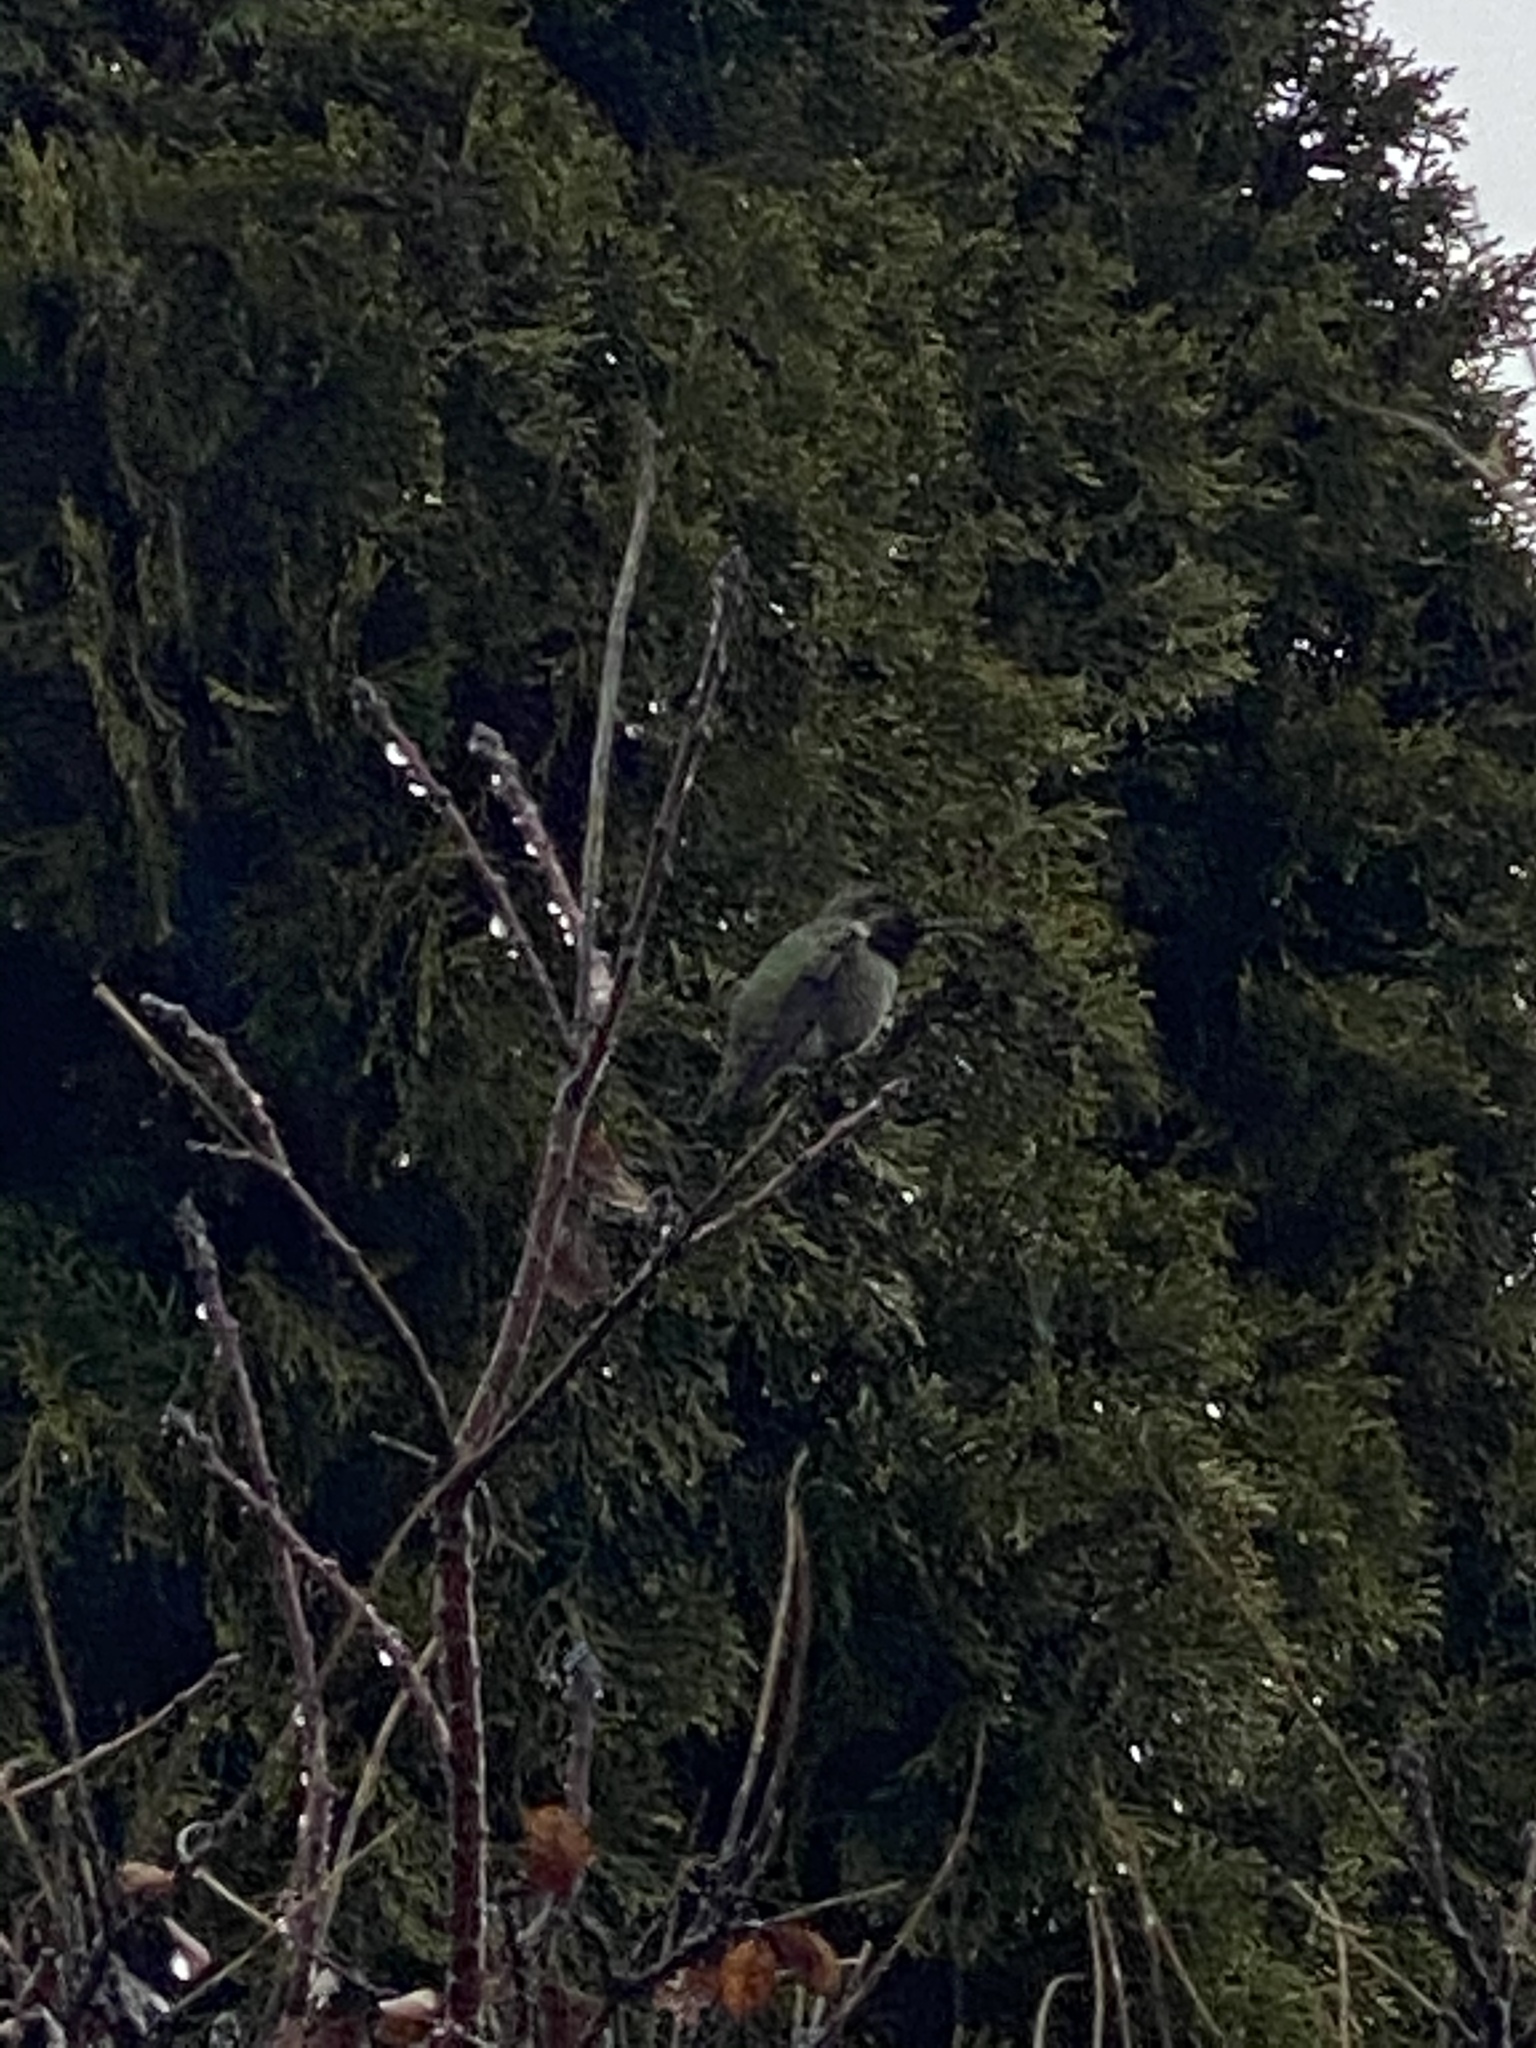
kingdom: Animalia
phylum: Chordata
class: Aves
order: Apodiformes
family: Trochilidae
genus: Calypte
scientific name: Calypte anna
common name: Anna's hummingbird
